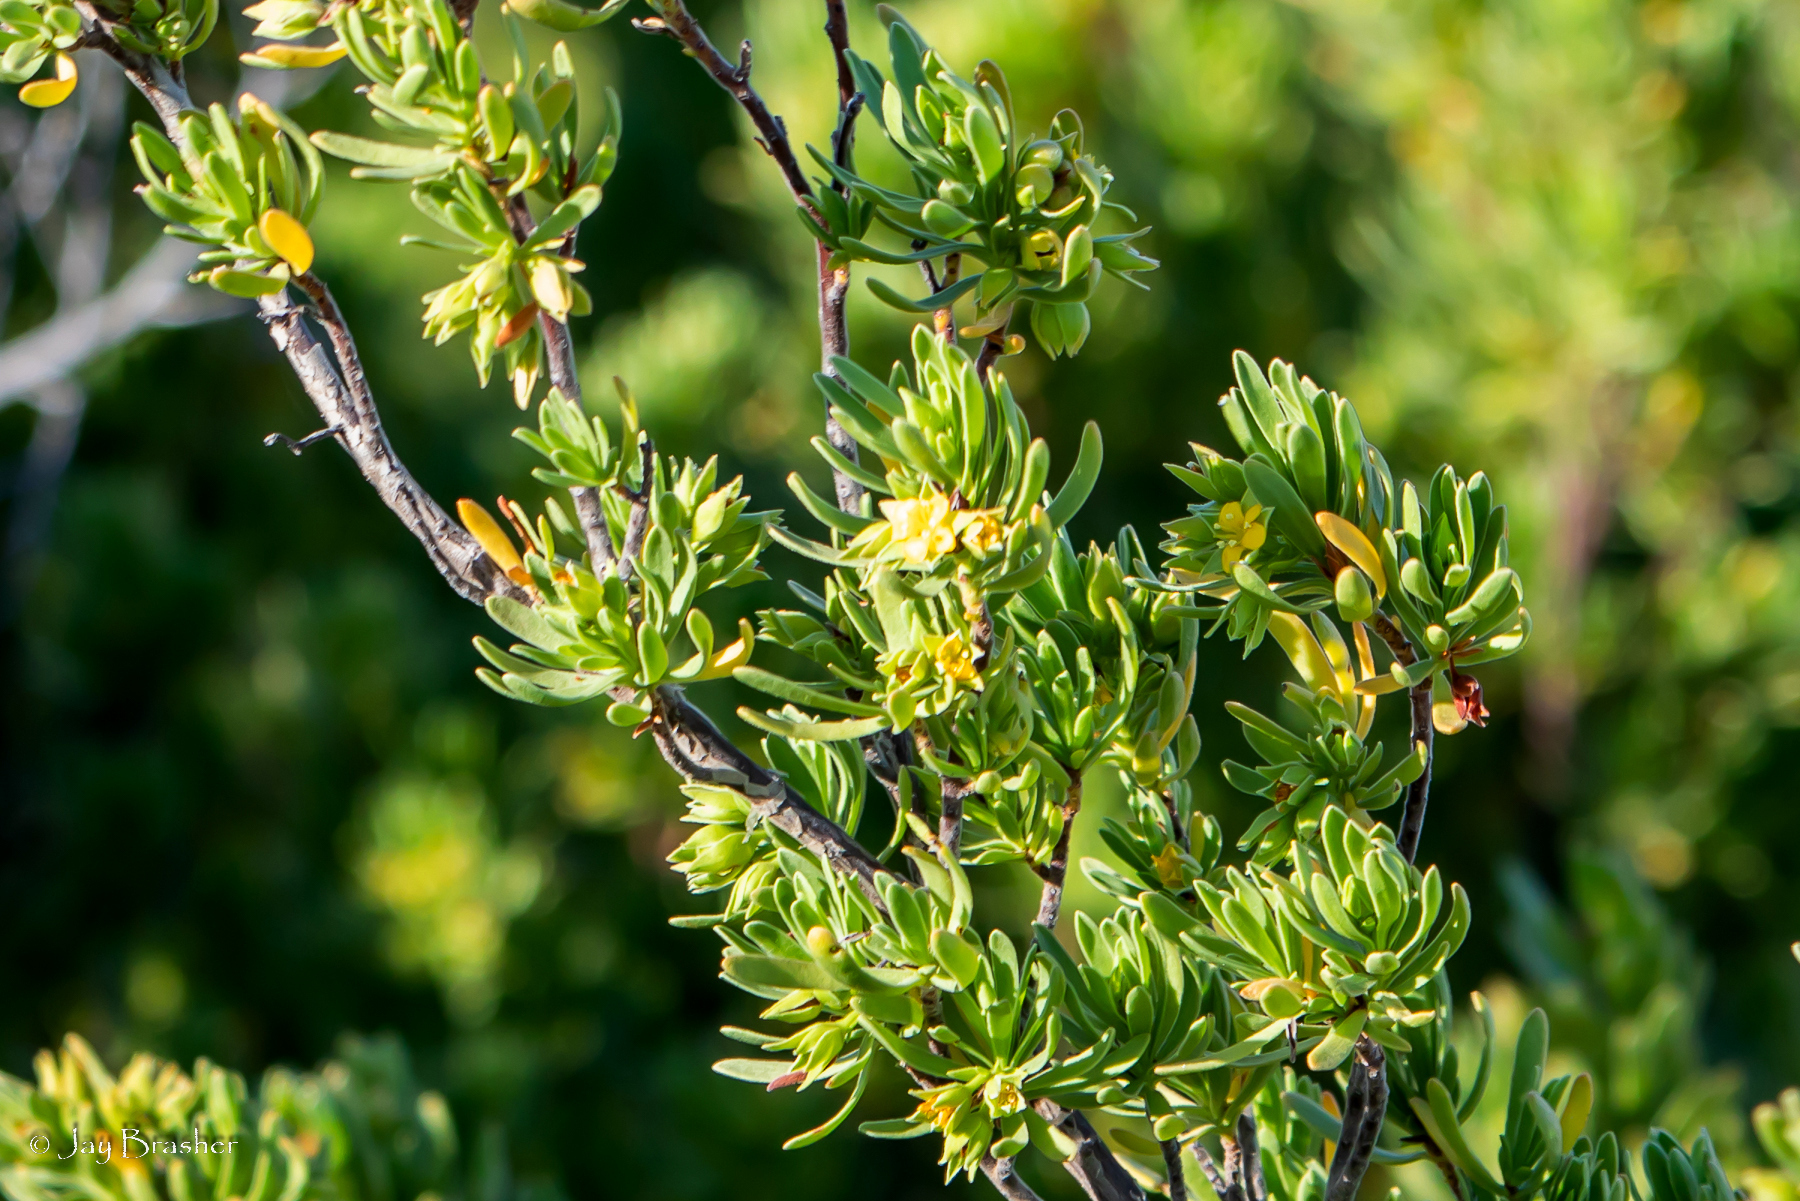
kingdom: Plantae
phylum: Tracheophyta
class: Magnoliopsida
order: Fabales
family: Surianaceae
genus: Suriana
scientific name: Suriana maritima
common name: Bay-cedar
